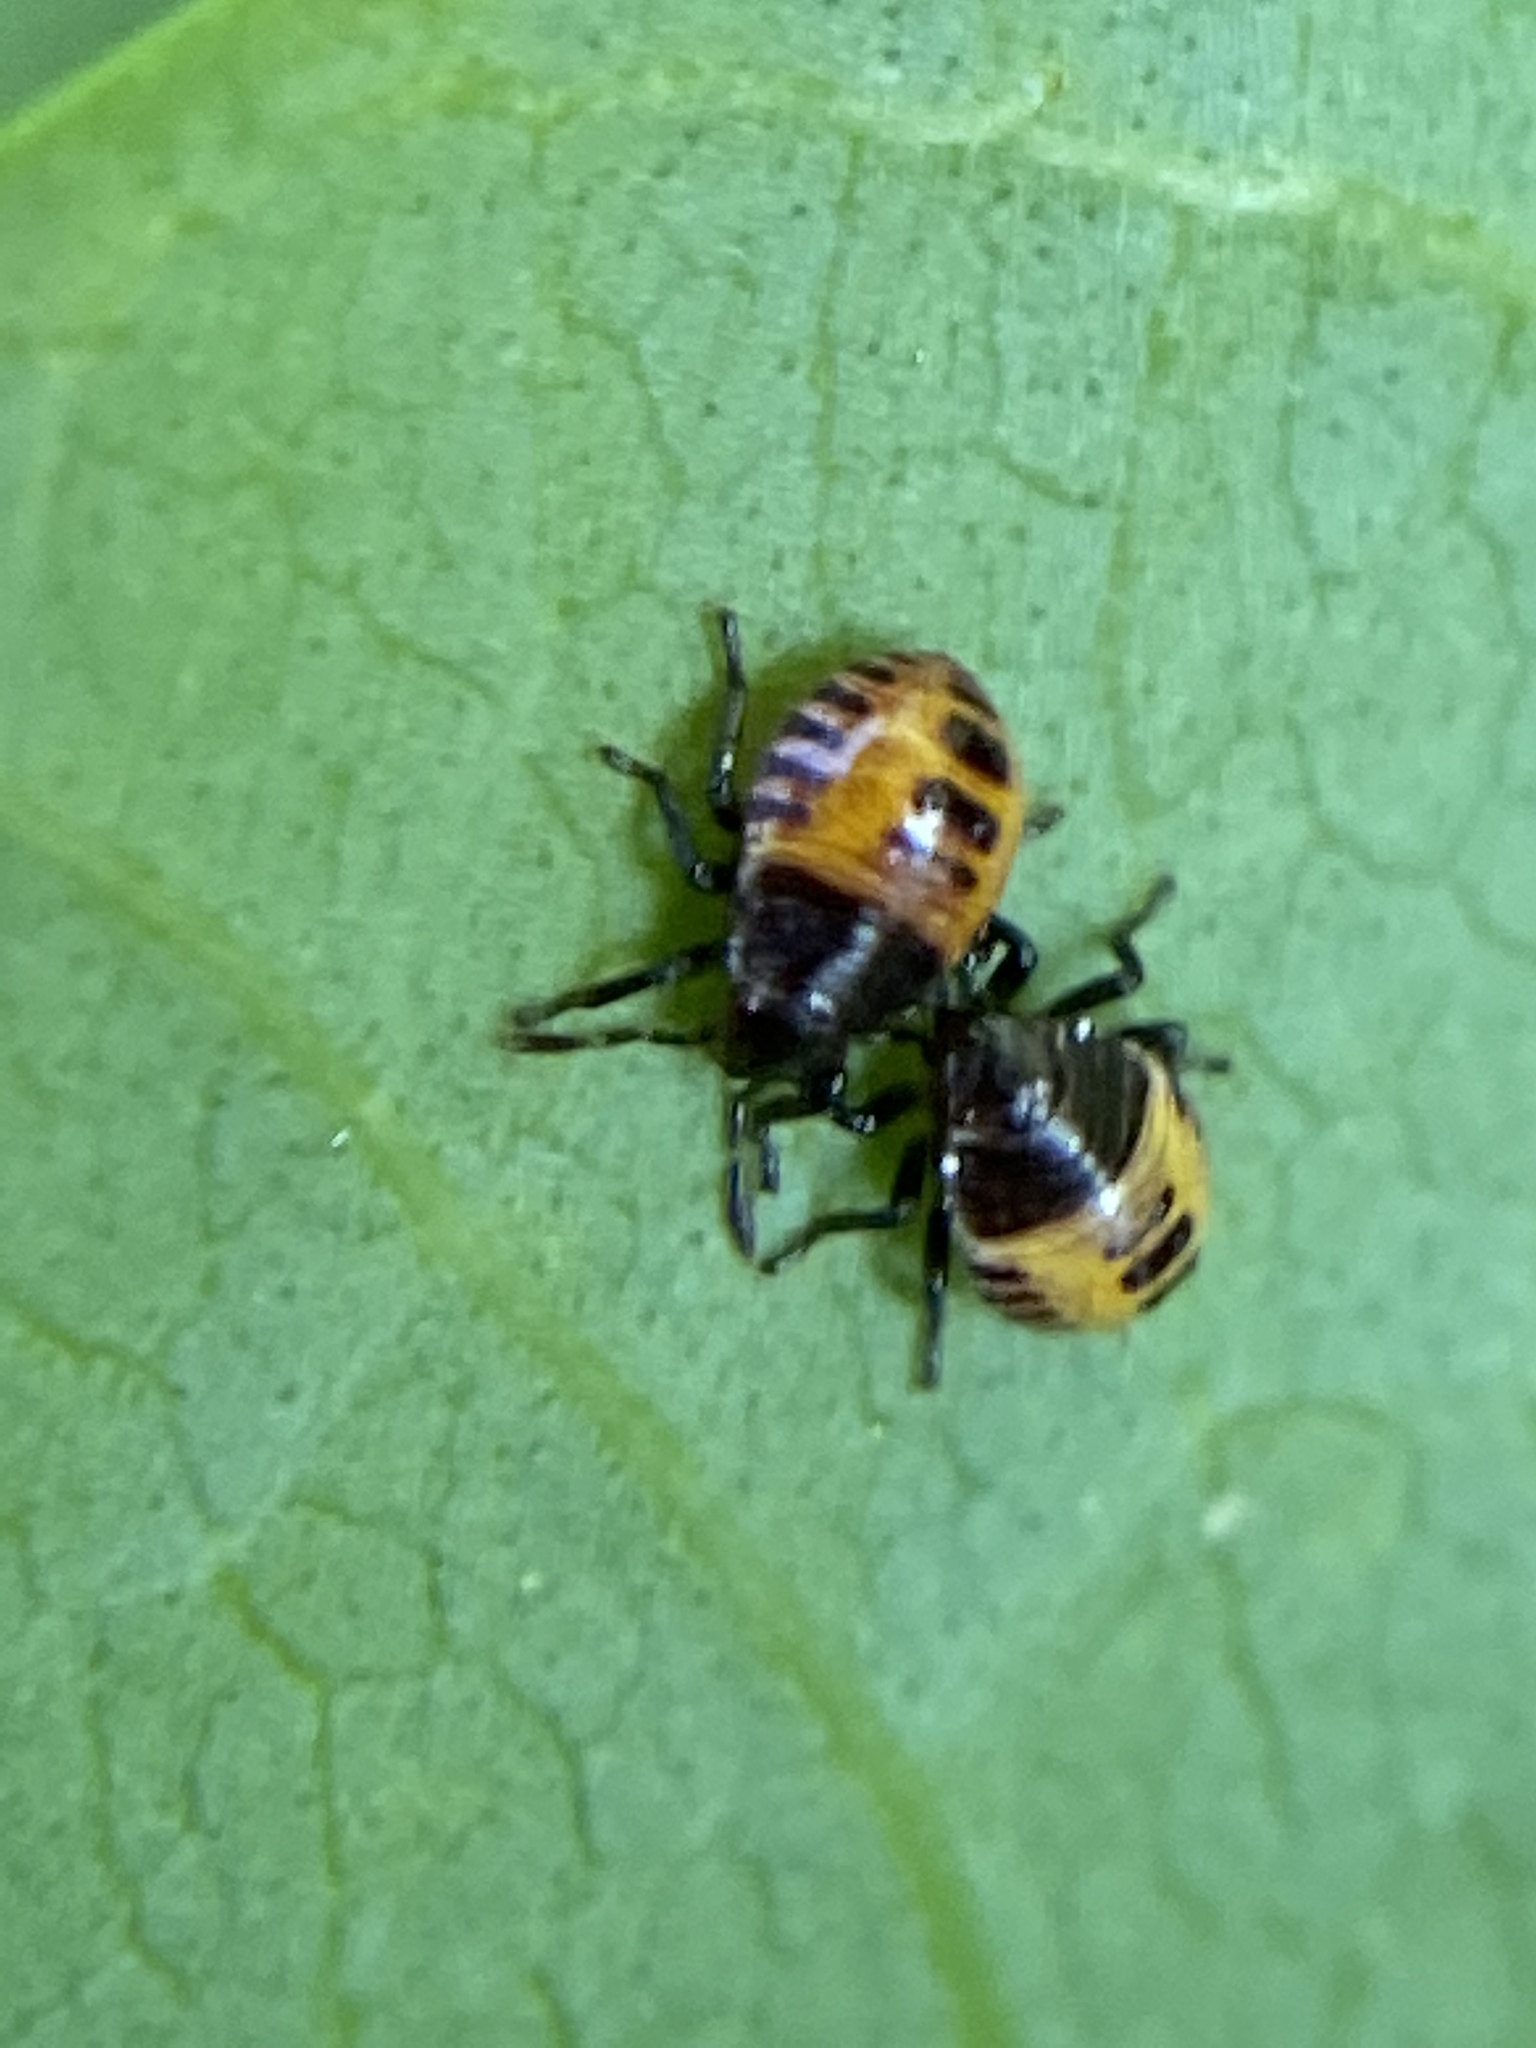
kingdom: Animalia
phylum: Arthropoda
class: Insecta
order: Hemiptera
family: Pentatomidae
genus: Halyomorpha
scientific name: Halyomorpha halys
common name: Brown marmorated stink bug
